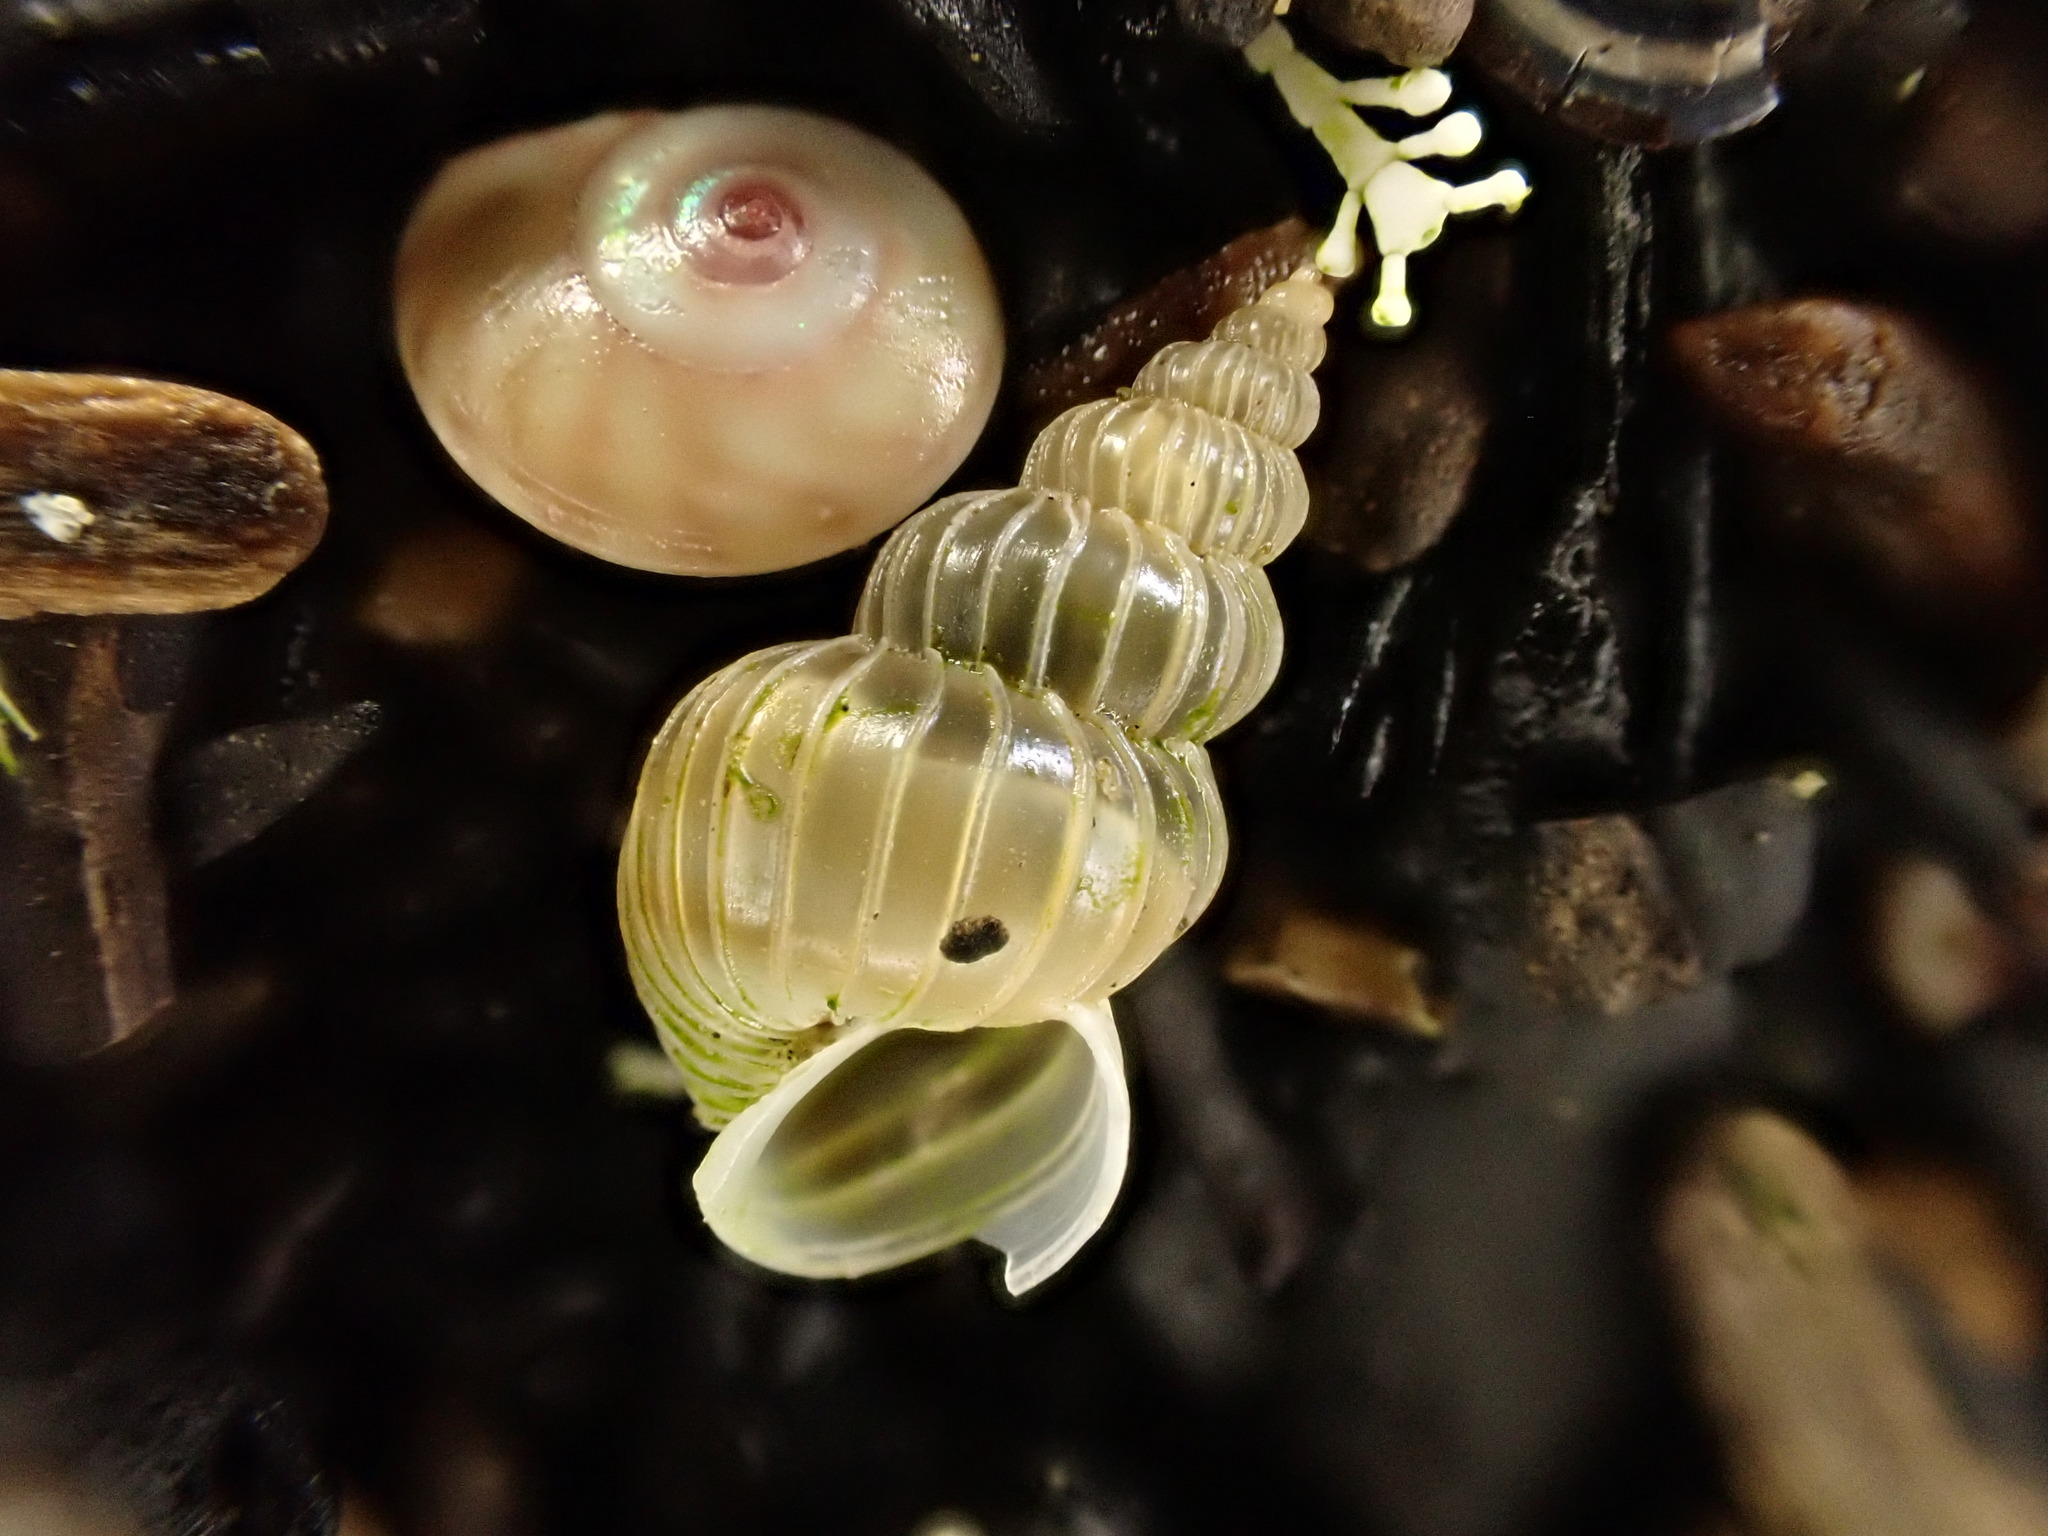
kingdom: Animalia
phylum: Mollusca
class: Gastropoda
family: Epitoniidae
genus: Epitonium
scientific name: Epitonium tenellum
